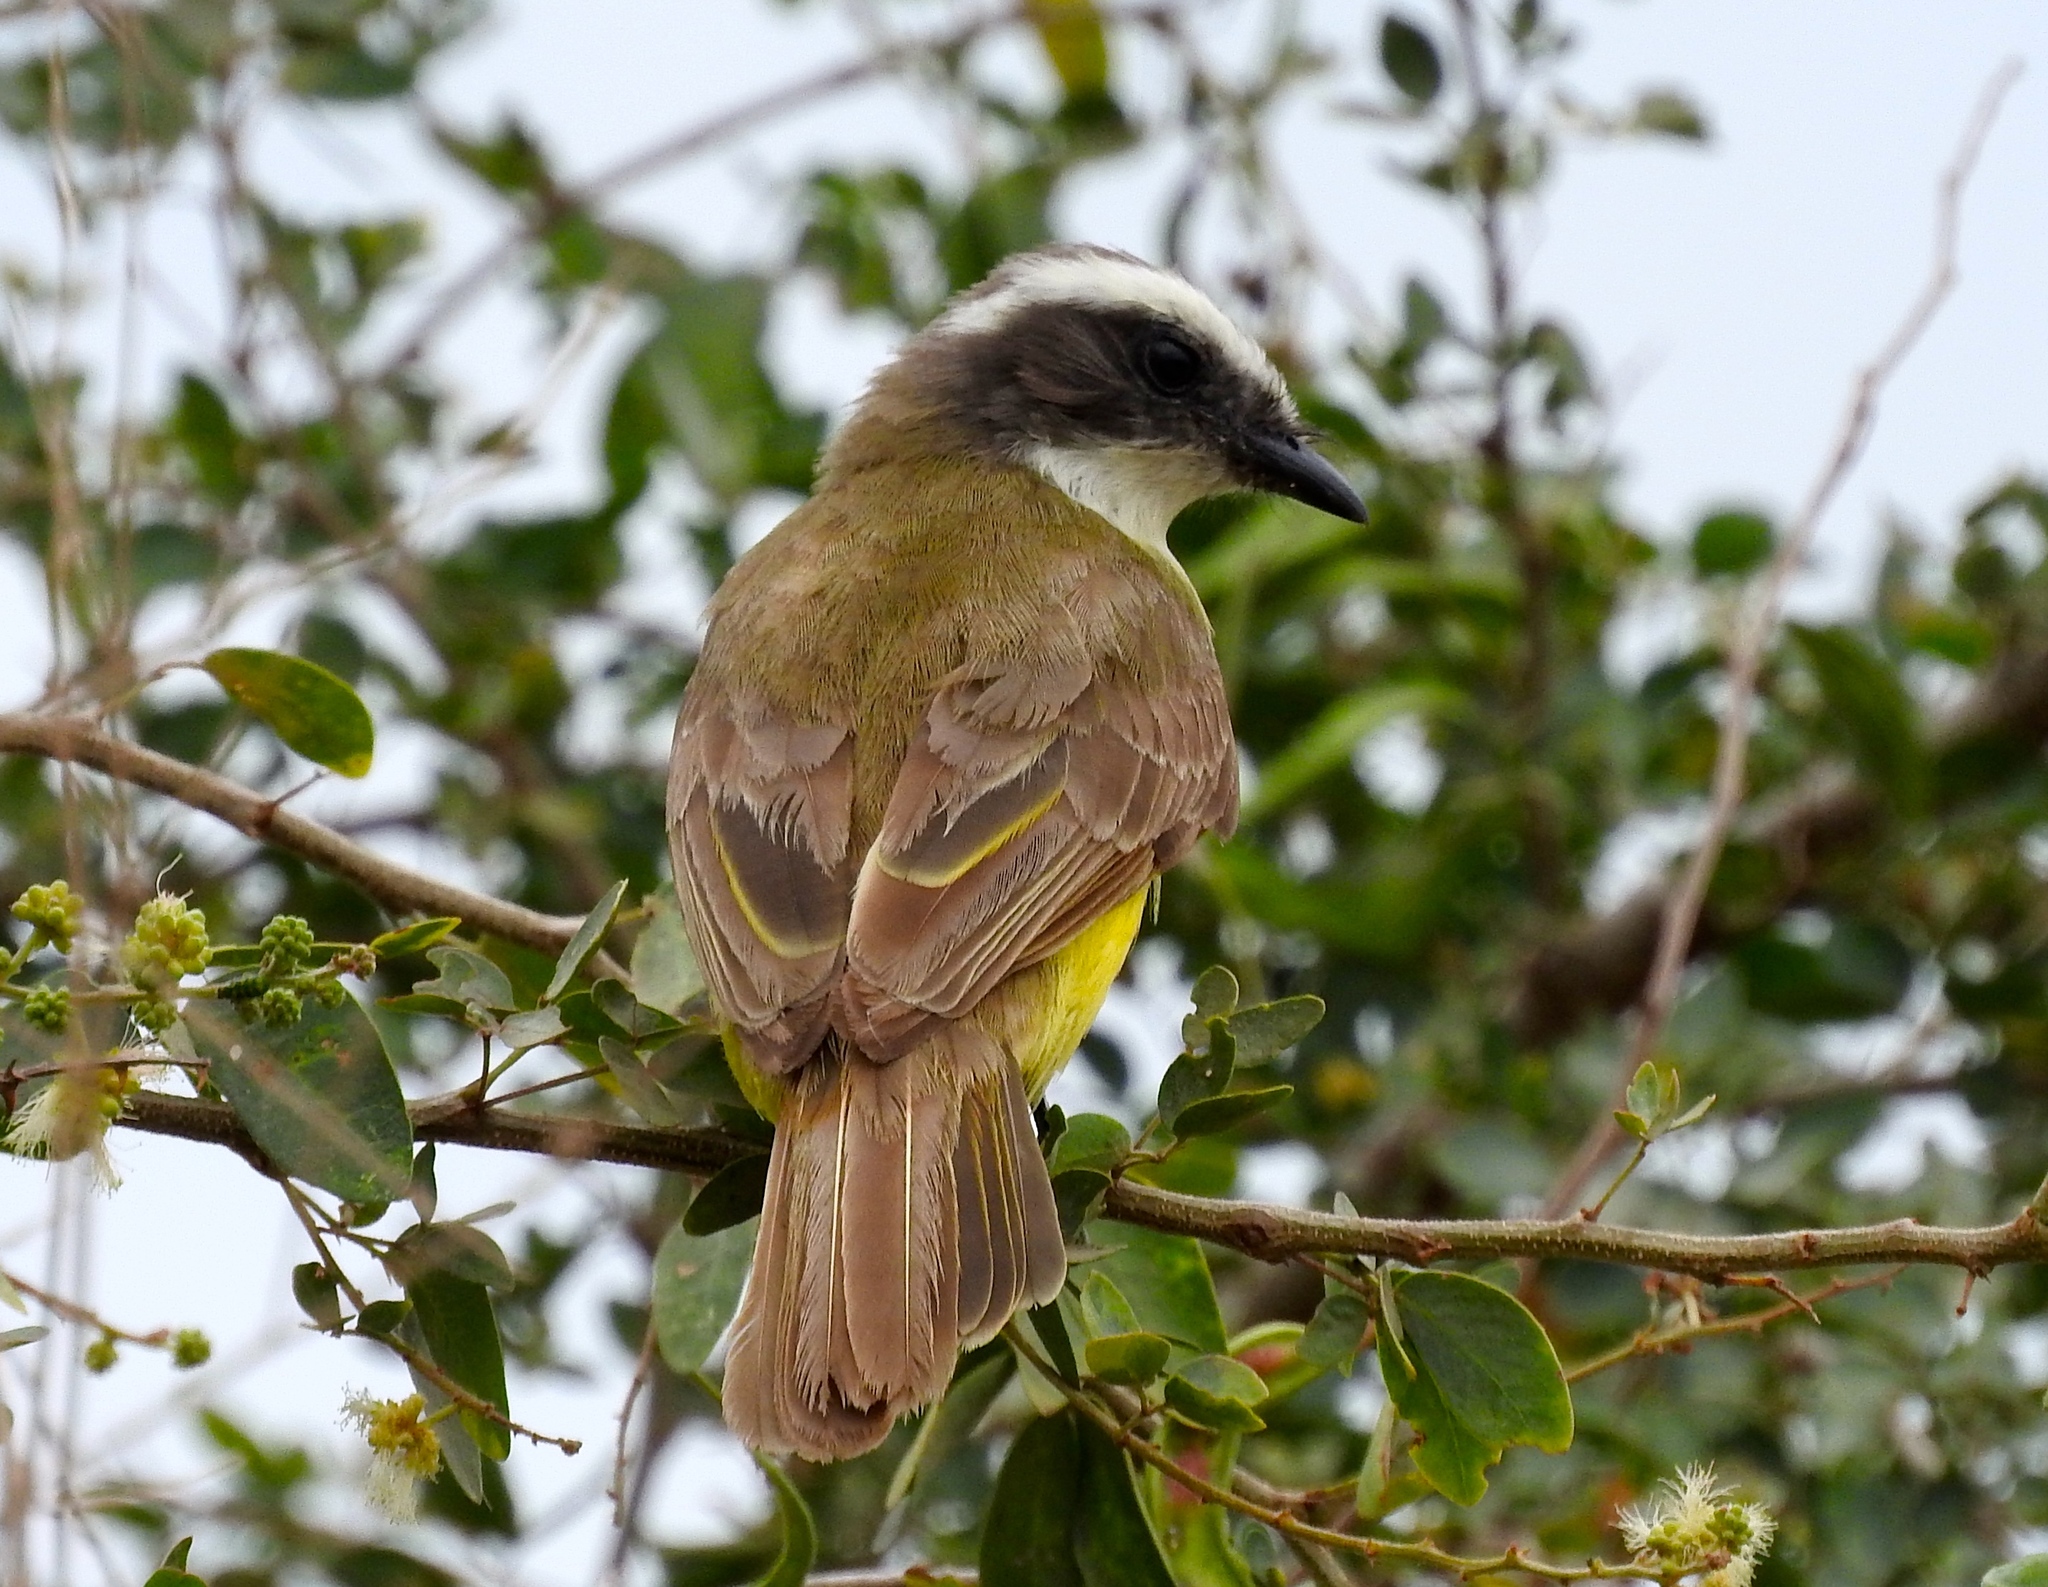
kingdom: Animalia
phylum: Chordata
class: Aves
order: Passeriformes
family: Tyrannidae
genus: Myiozetetes
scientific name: Myiozetetes similis
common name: Social flycatcher
